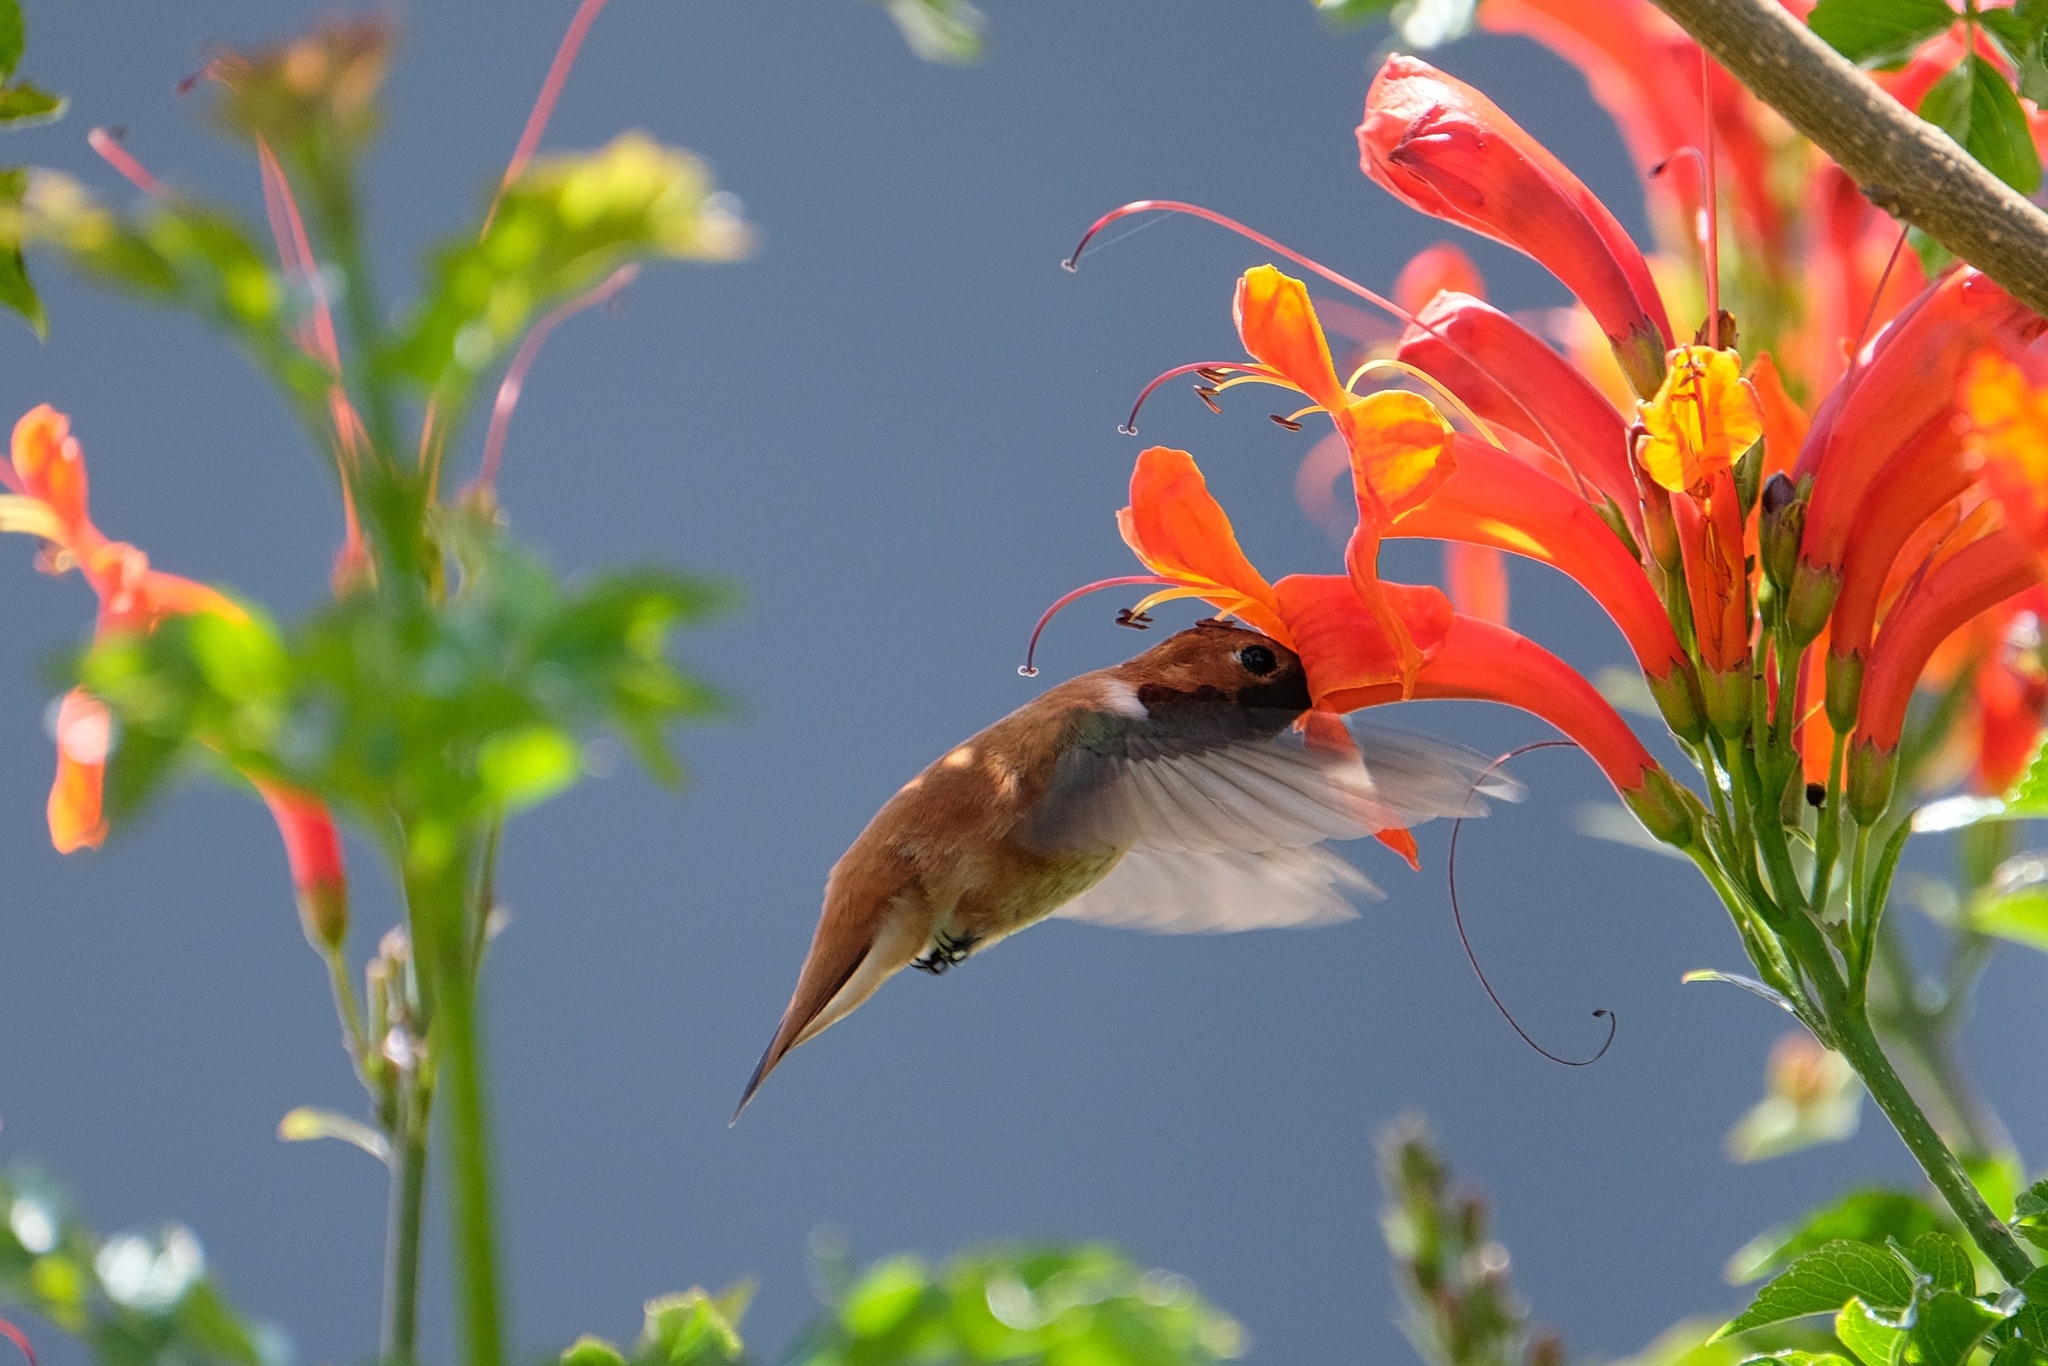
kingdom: Animalia
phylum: Chordata
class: Aves
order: Apodiformes
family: Trochilidae
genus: Selasphorus
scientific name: Selasphorus rufus
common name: Rufous hummingbird
